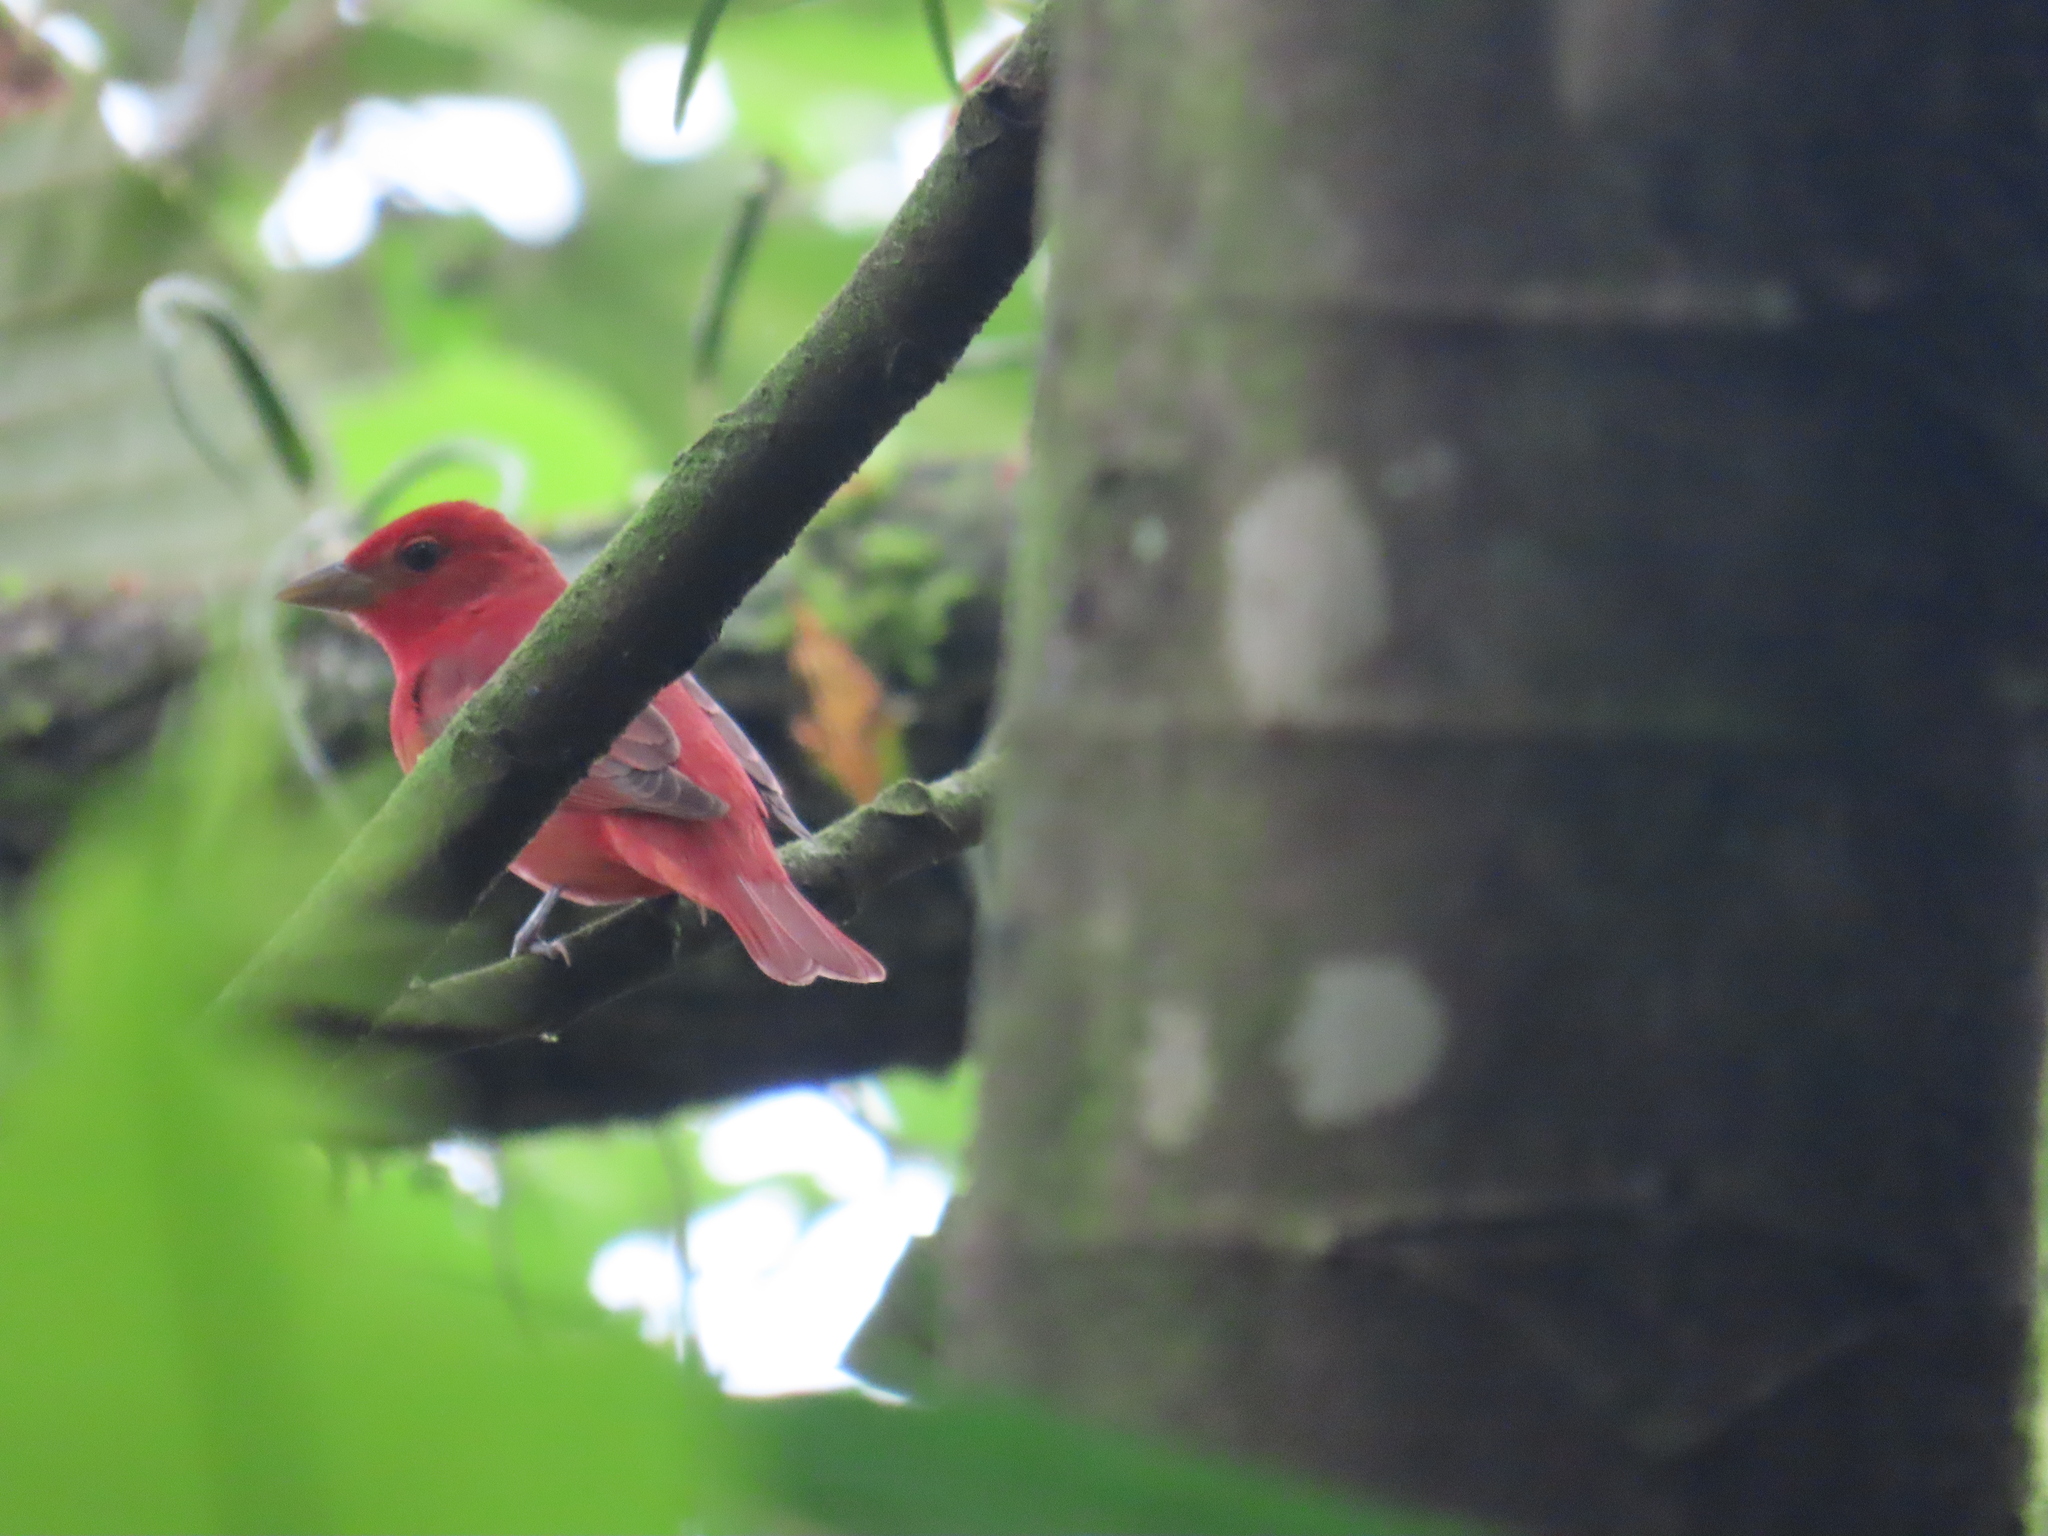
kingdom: Animalia
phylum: Chordata
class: Aves
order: Passeriformes
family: Cardinalidae
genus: Piranga
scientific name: Piranga rubra
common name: Summer tanager
